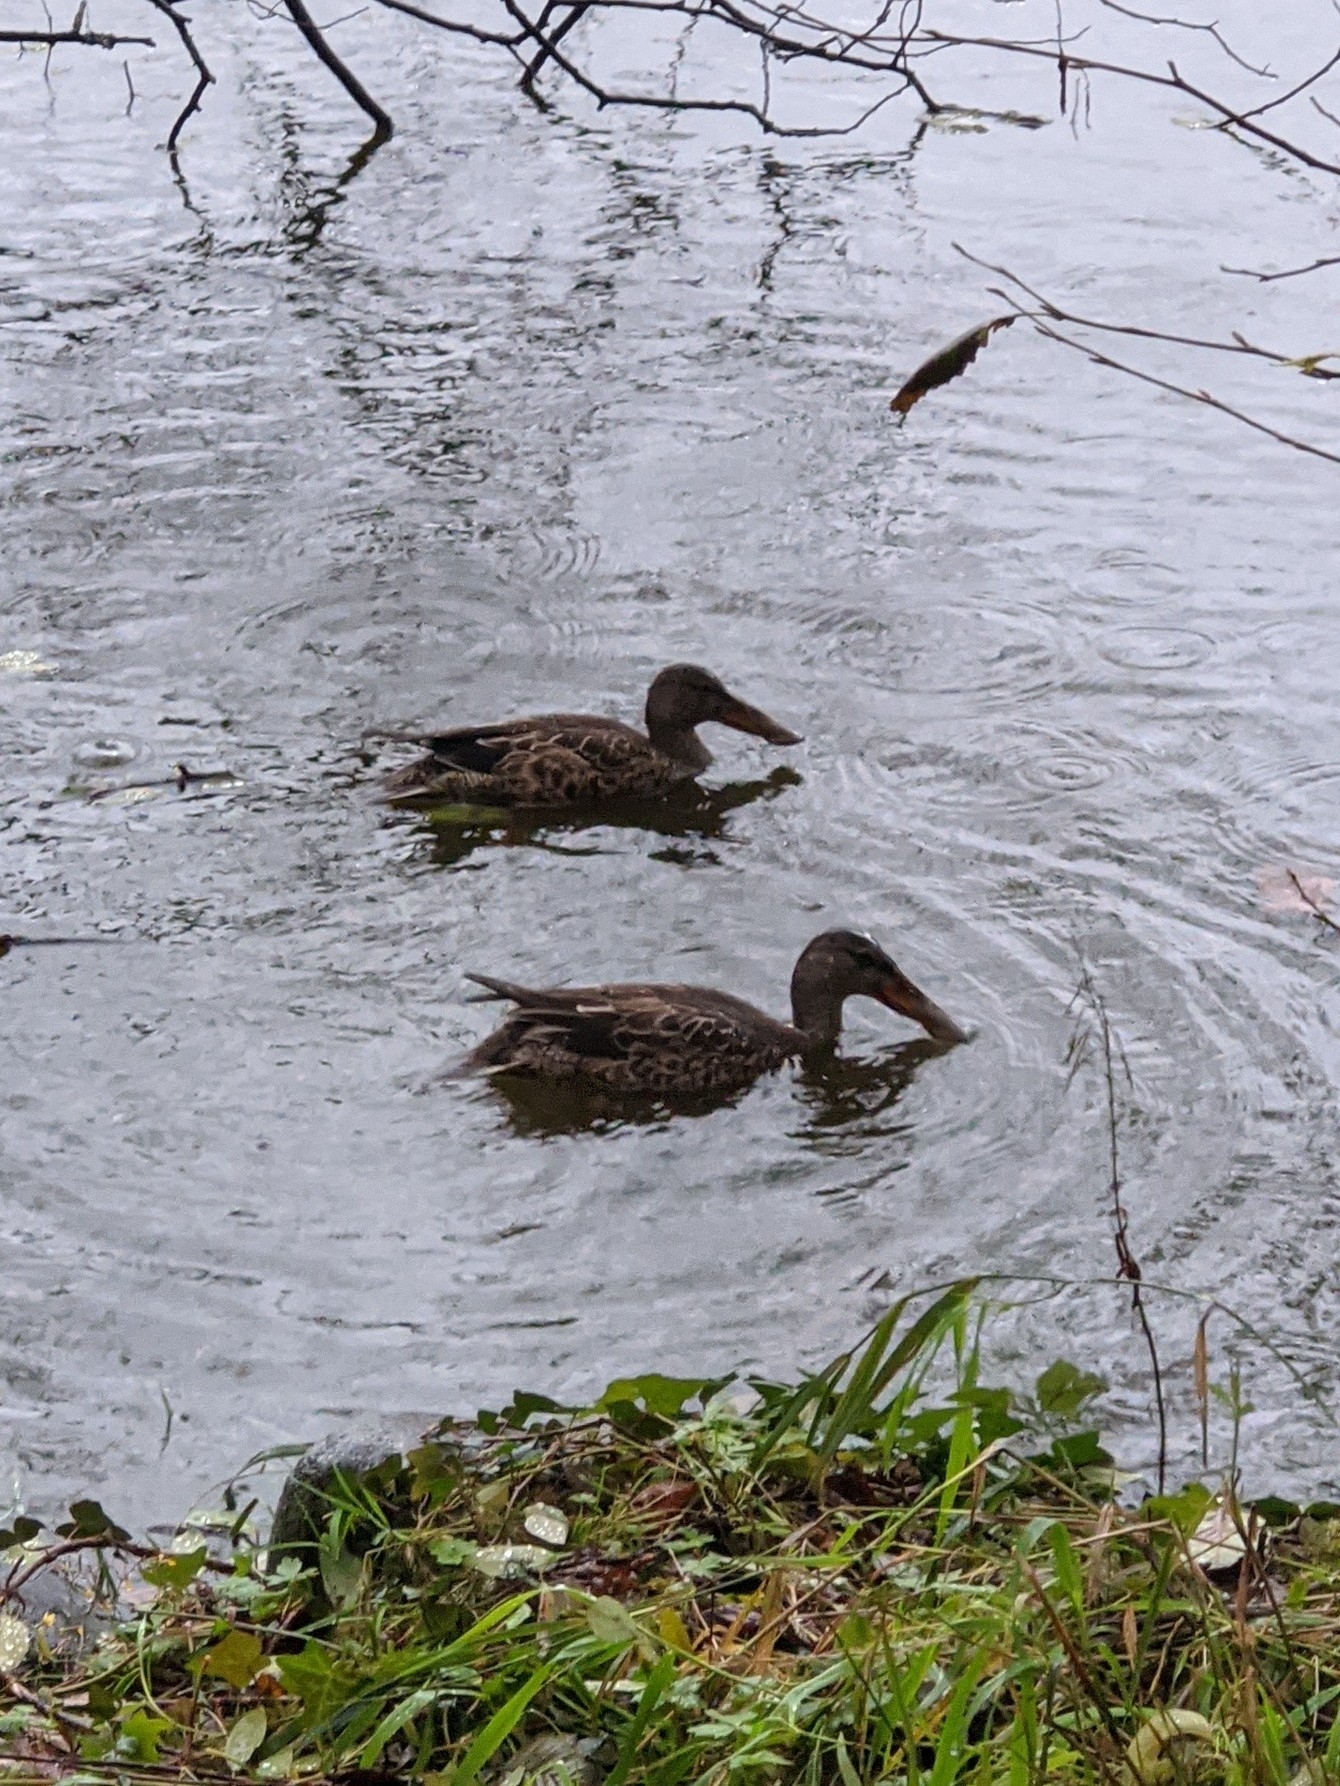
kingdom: Animalia
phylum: Chordata
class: Aves
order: Anseriformes
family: Anatidae
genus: Spatula
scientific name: Spatula clypeata
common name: Northern shoveler
